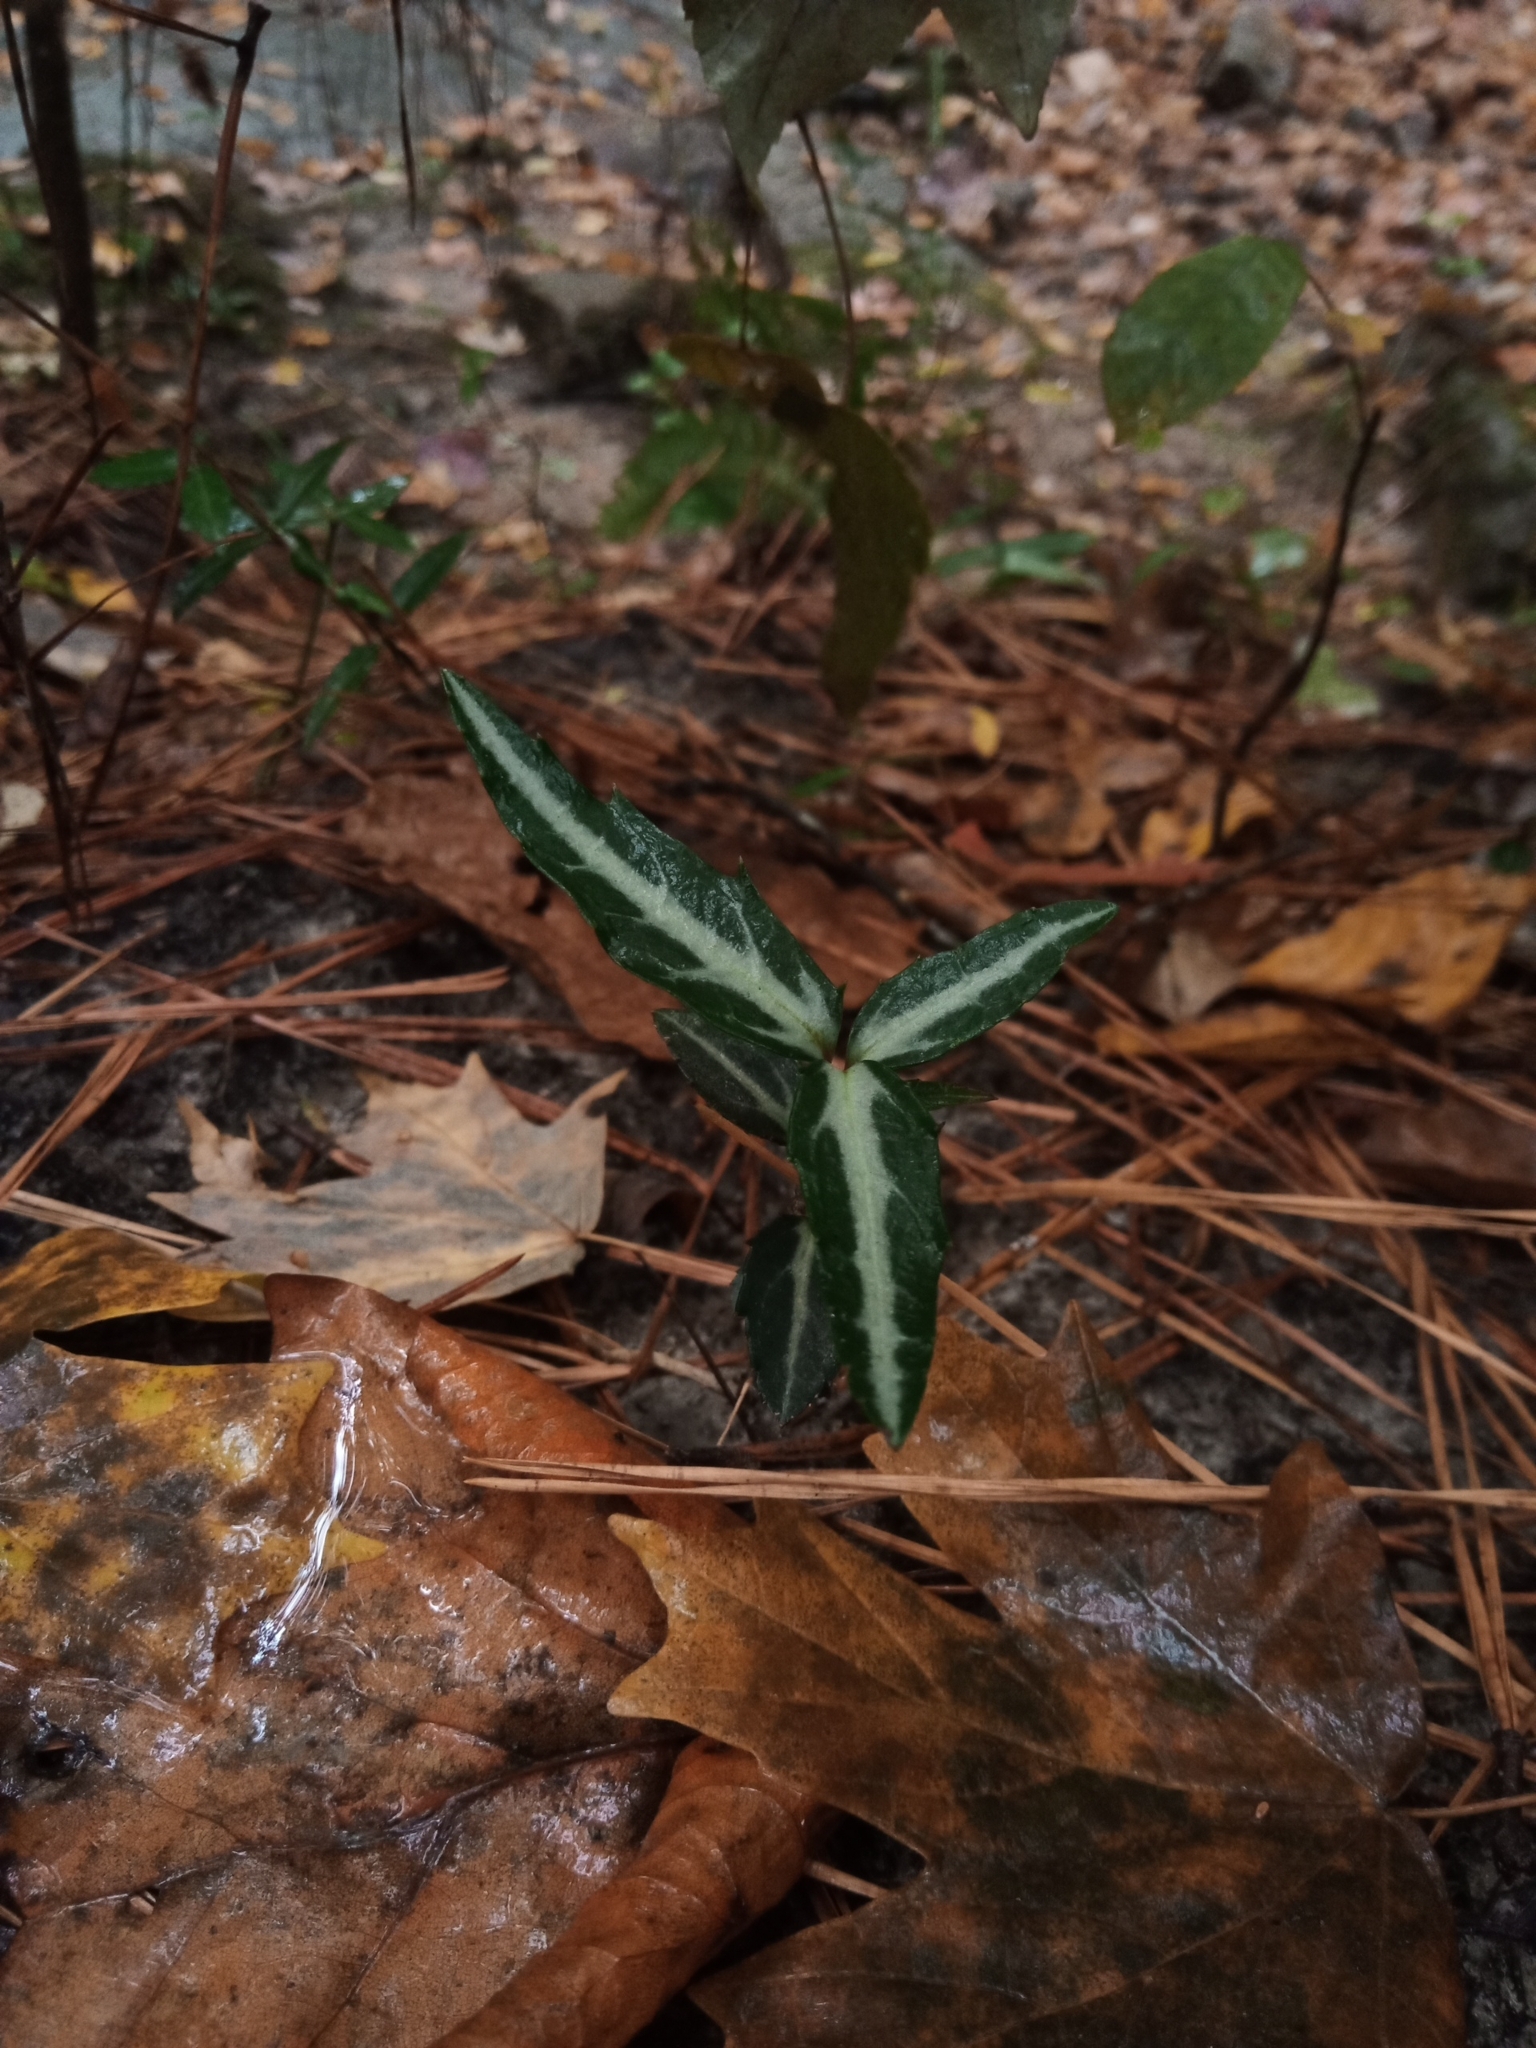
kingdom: Plantae
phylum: Tracheophyta
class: Magnoliopsida
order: Ericales
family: Ericaceae
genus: Chimaphila
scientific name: Chimaphila maculata
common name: Spotted pipsissewa
